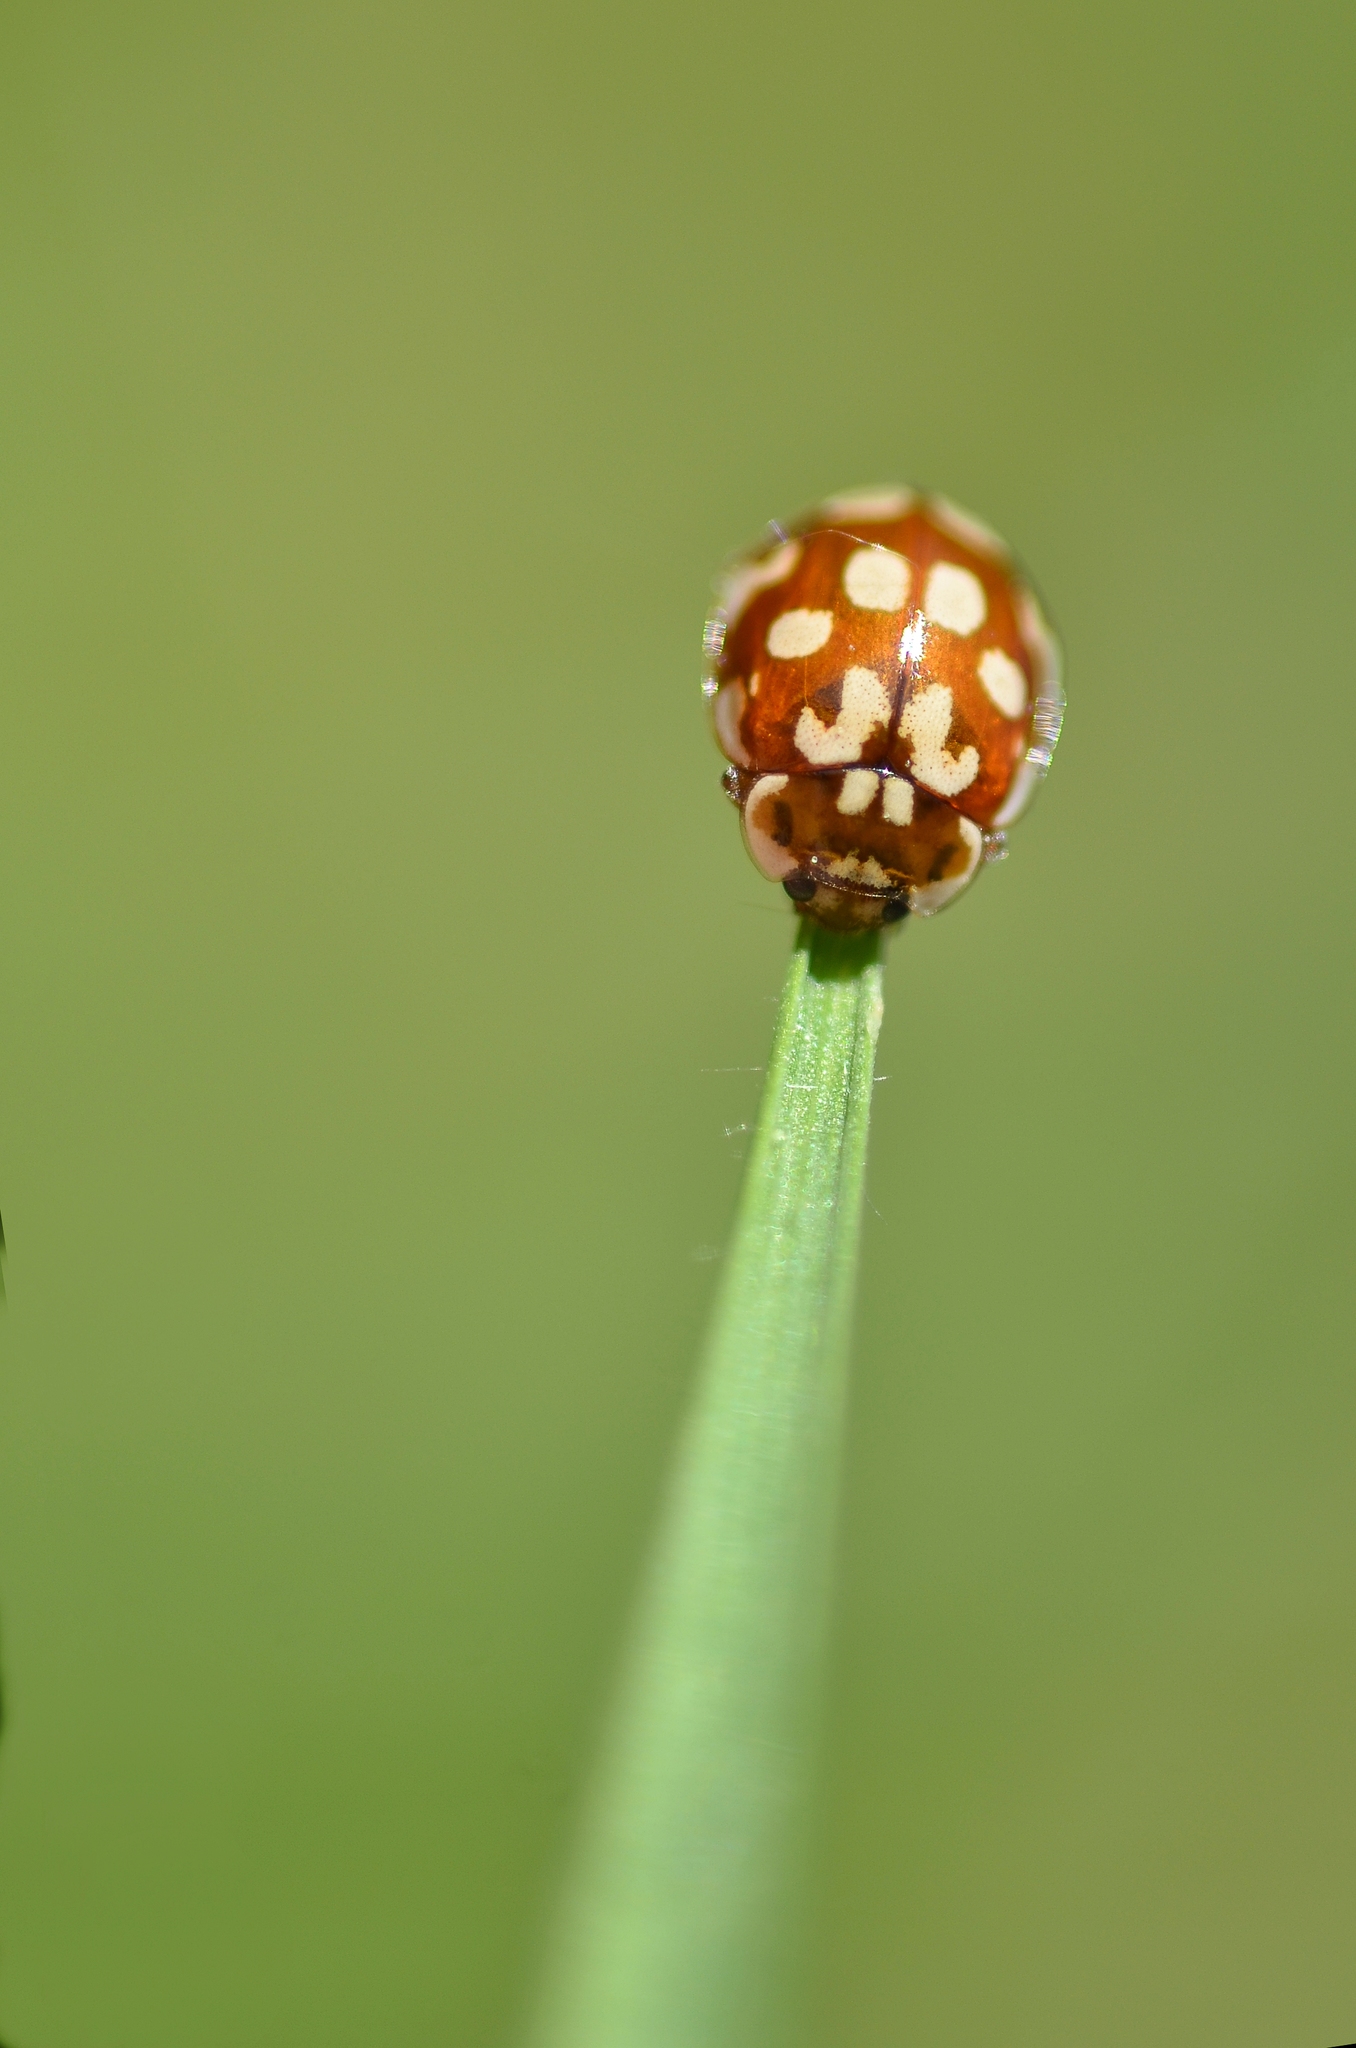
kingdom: Animalia
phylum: Arthropoda
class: Insecta
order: Coleoptera
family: Coccinellidae
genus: Myrrha
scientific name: Myrrha octodecimguttata
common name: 18-spot ladybird
